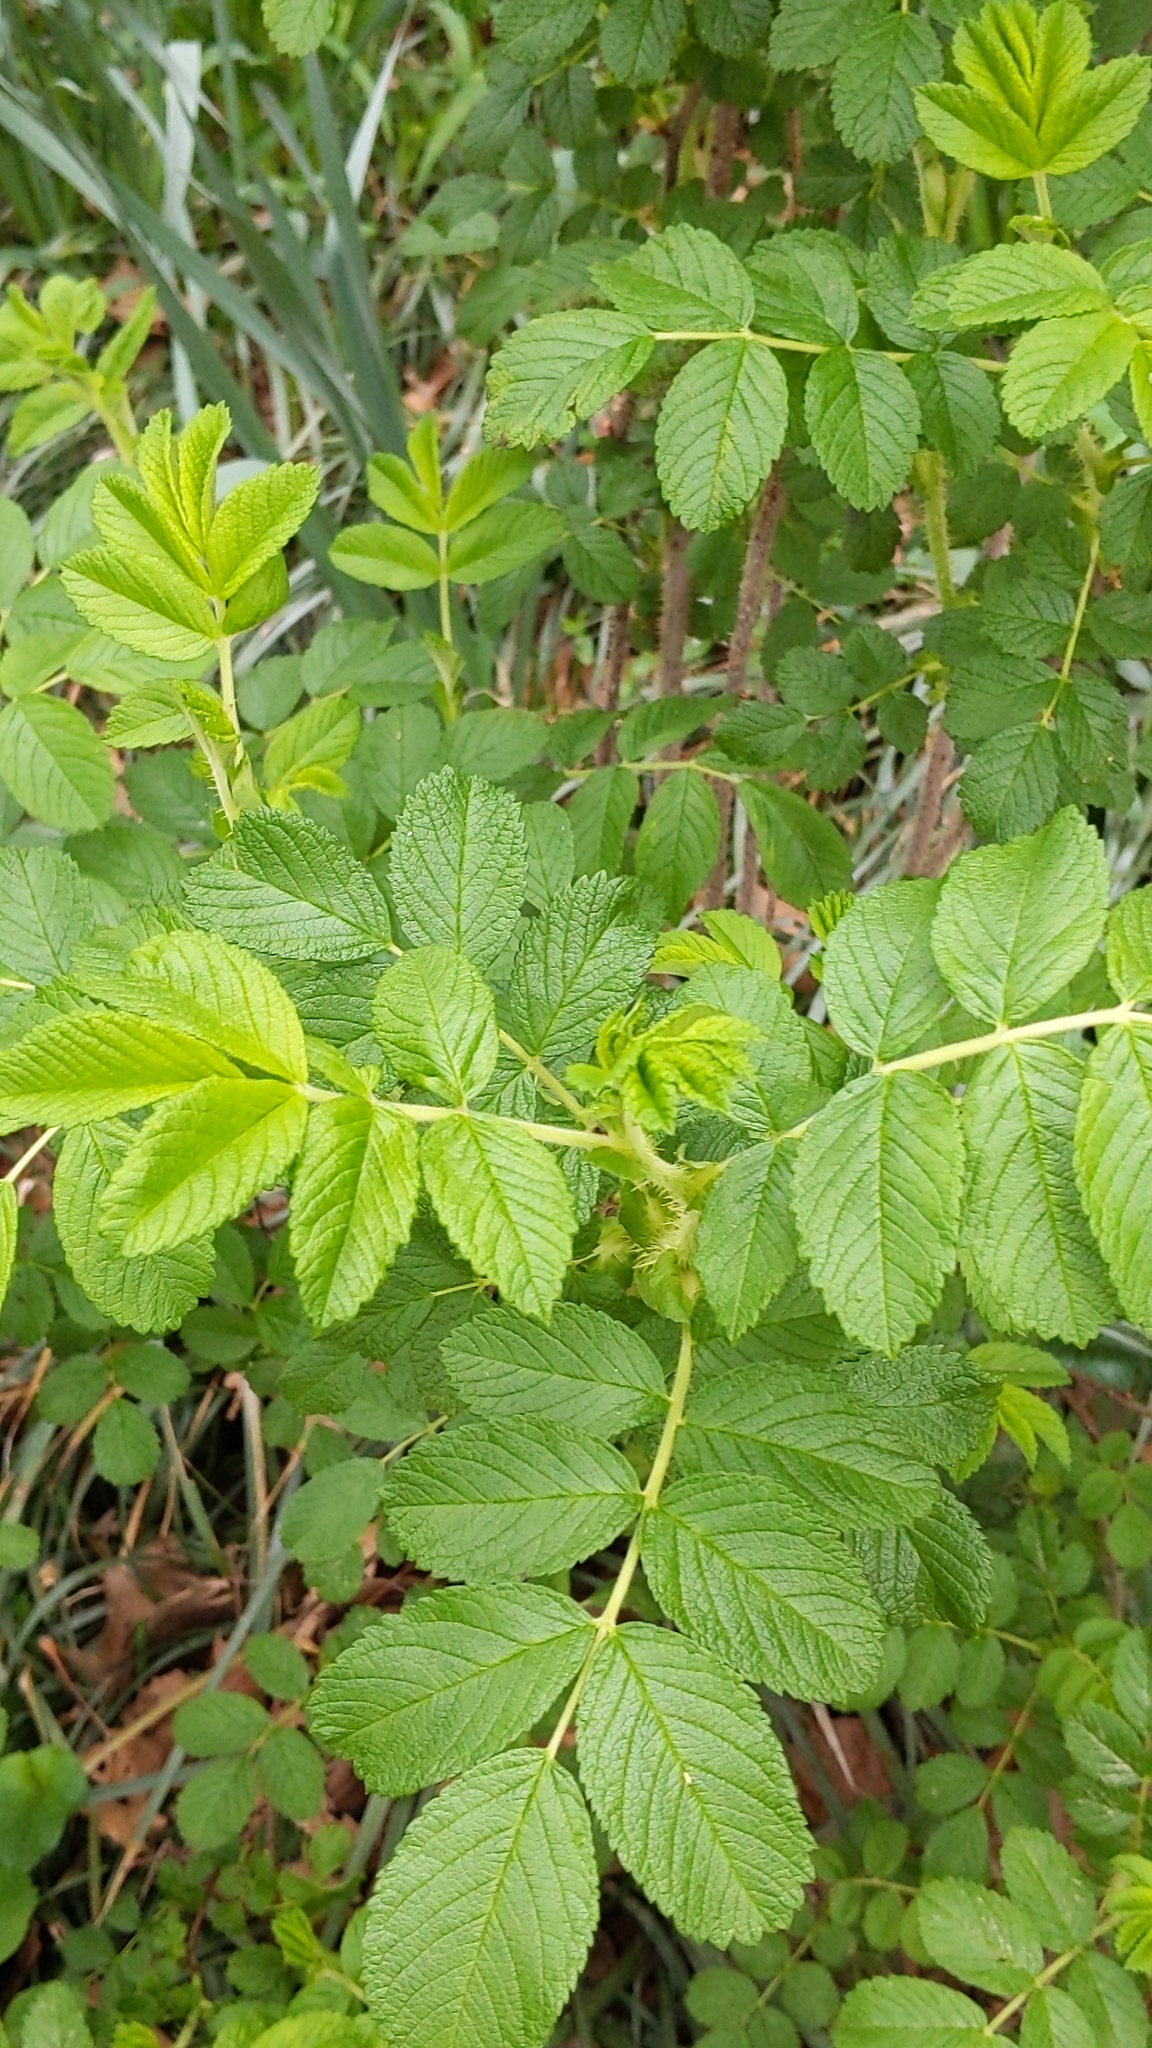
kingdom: Plantae
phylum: Tracheophyta
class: Magnoliopsida
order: Rosales
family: Rosaceae
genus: Rosa
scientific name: Rosa rugosa
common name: Japanese rose
